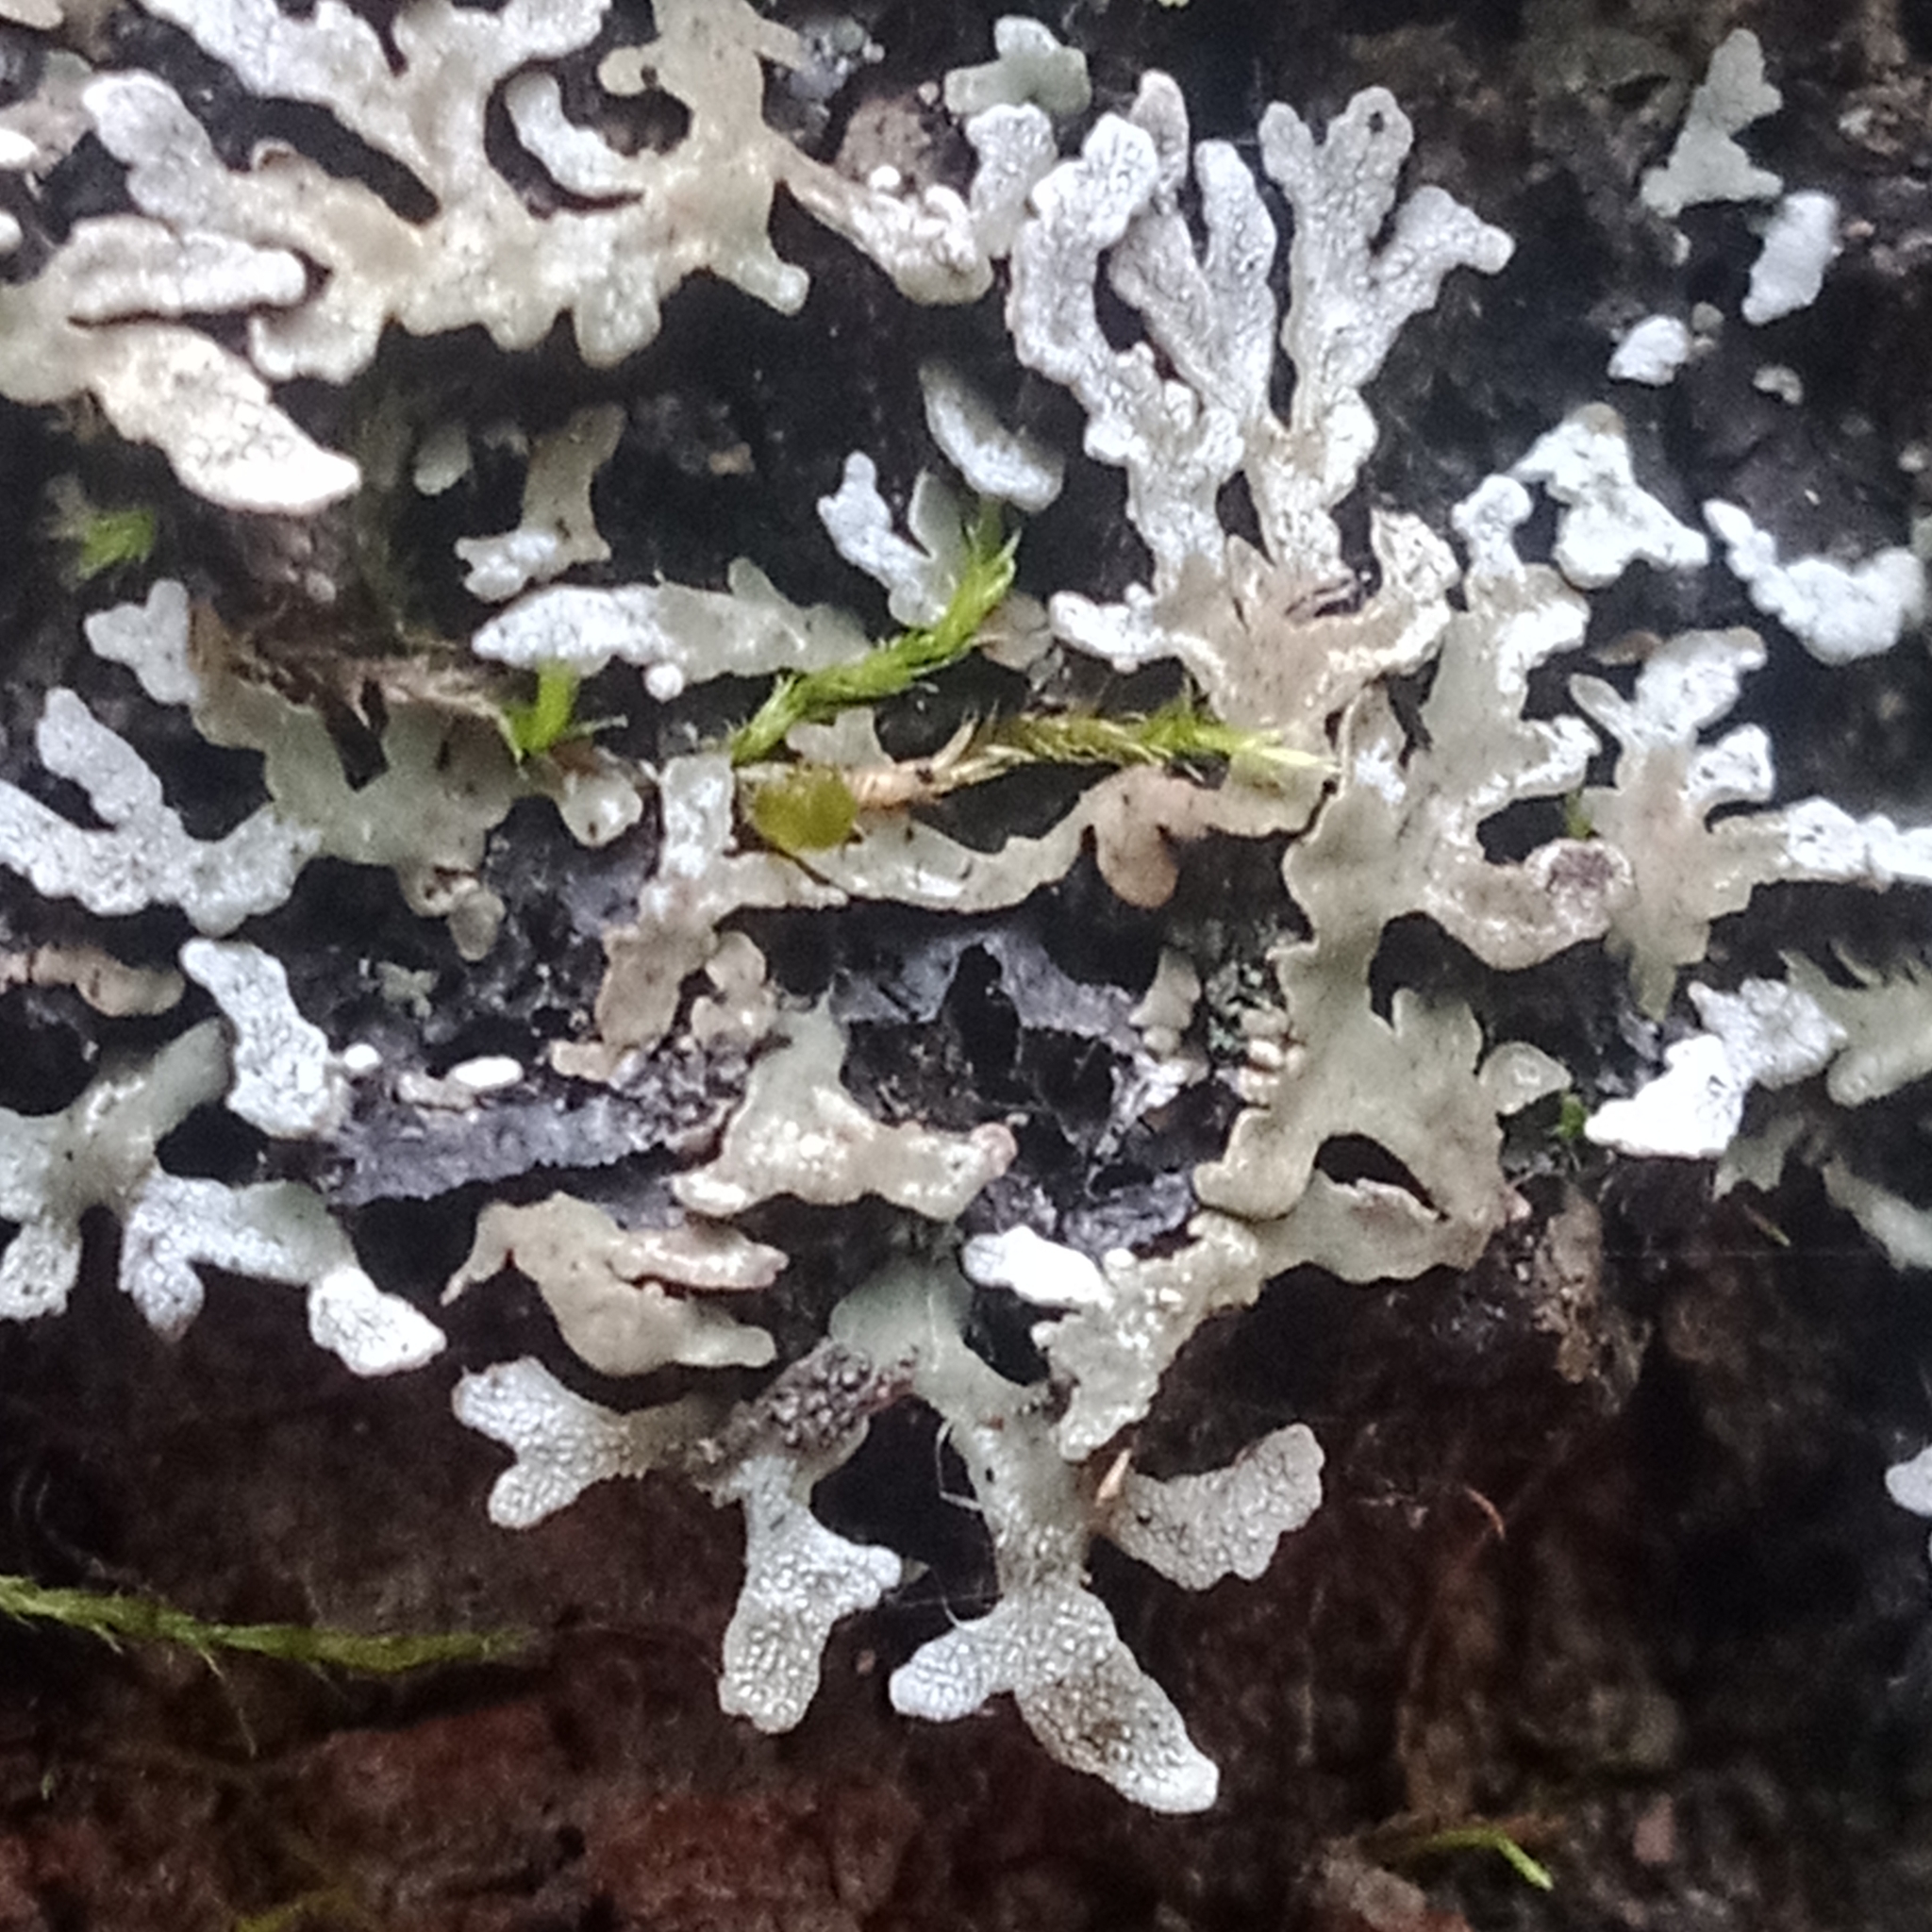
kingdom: Fungi
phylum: Ascomycota
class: Lecanoromycetes
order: Caliciales
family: Physciaceae
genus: Physconia
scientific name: Physconia distorta
